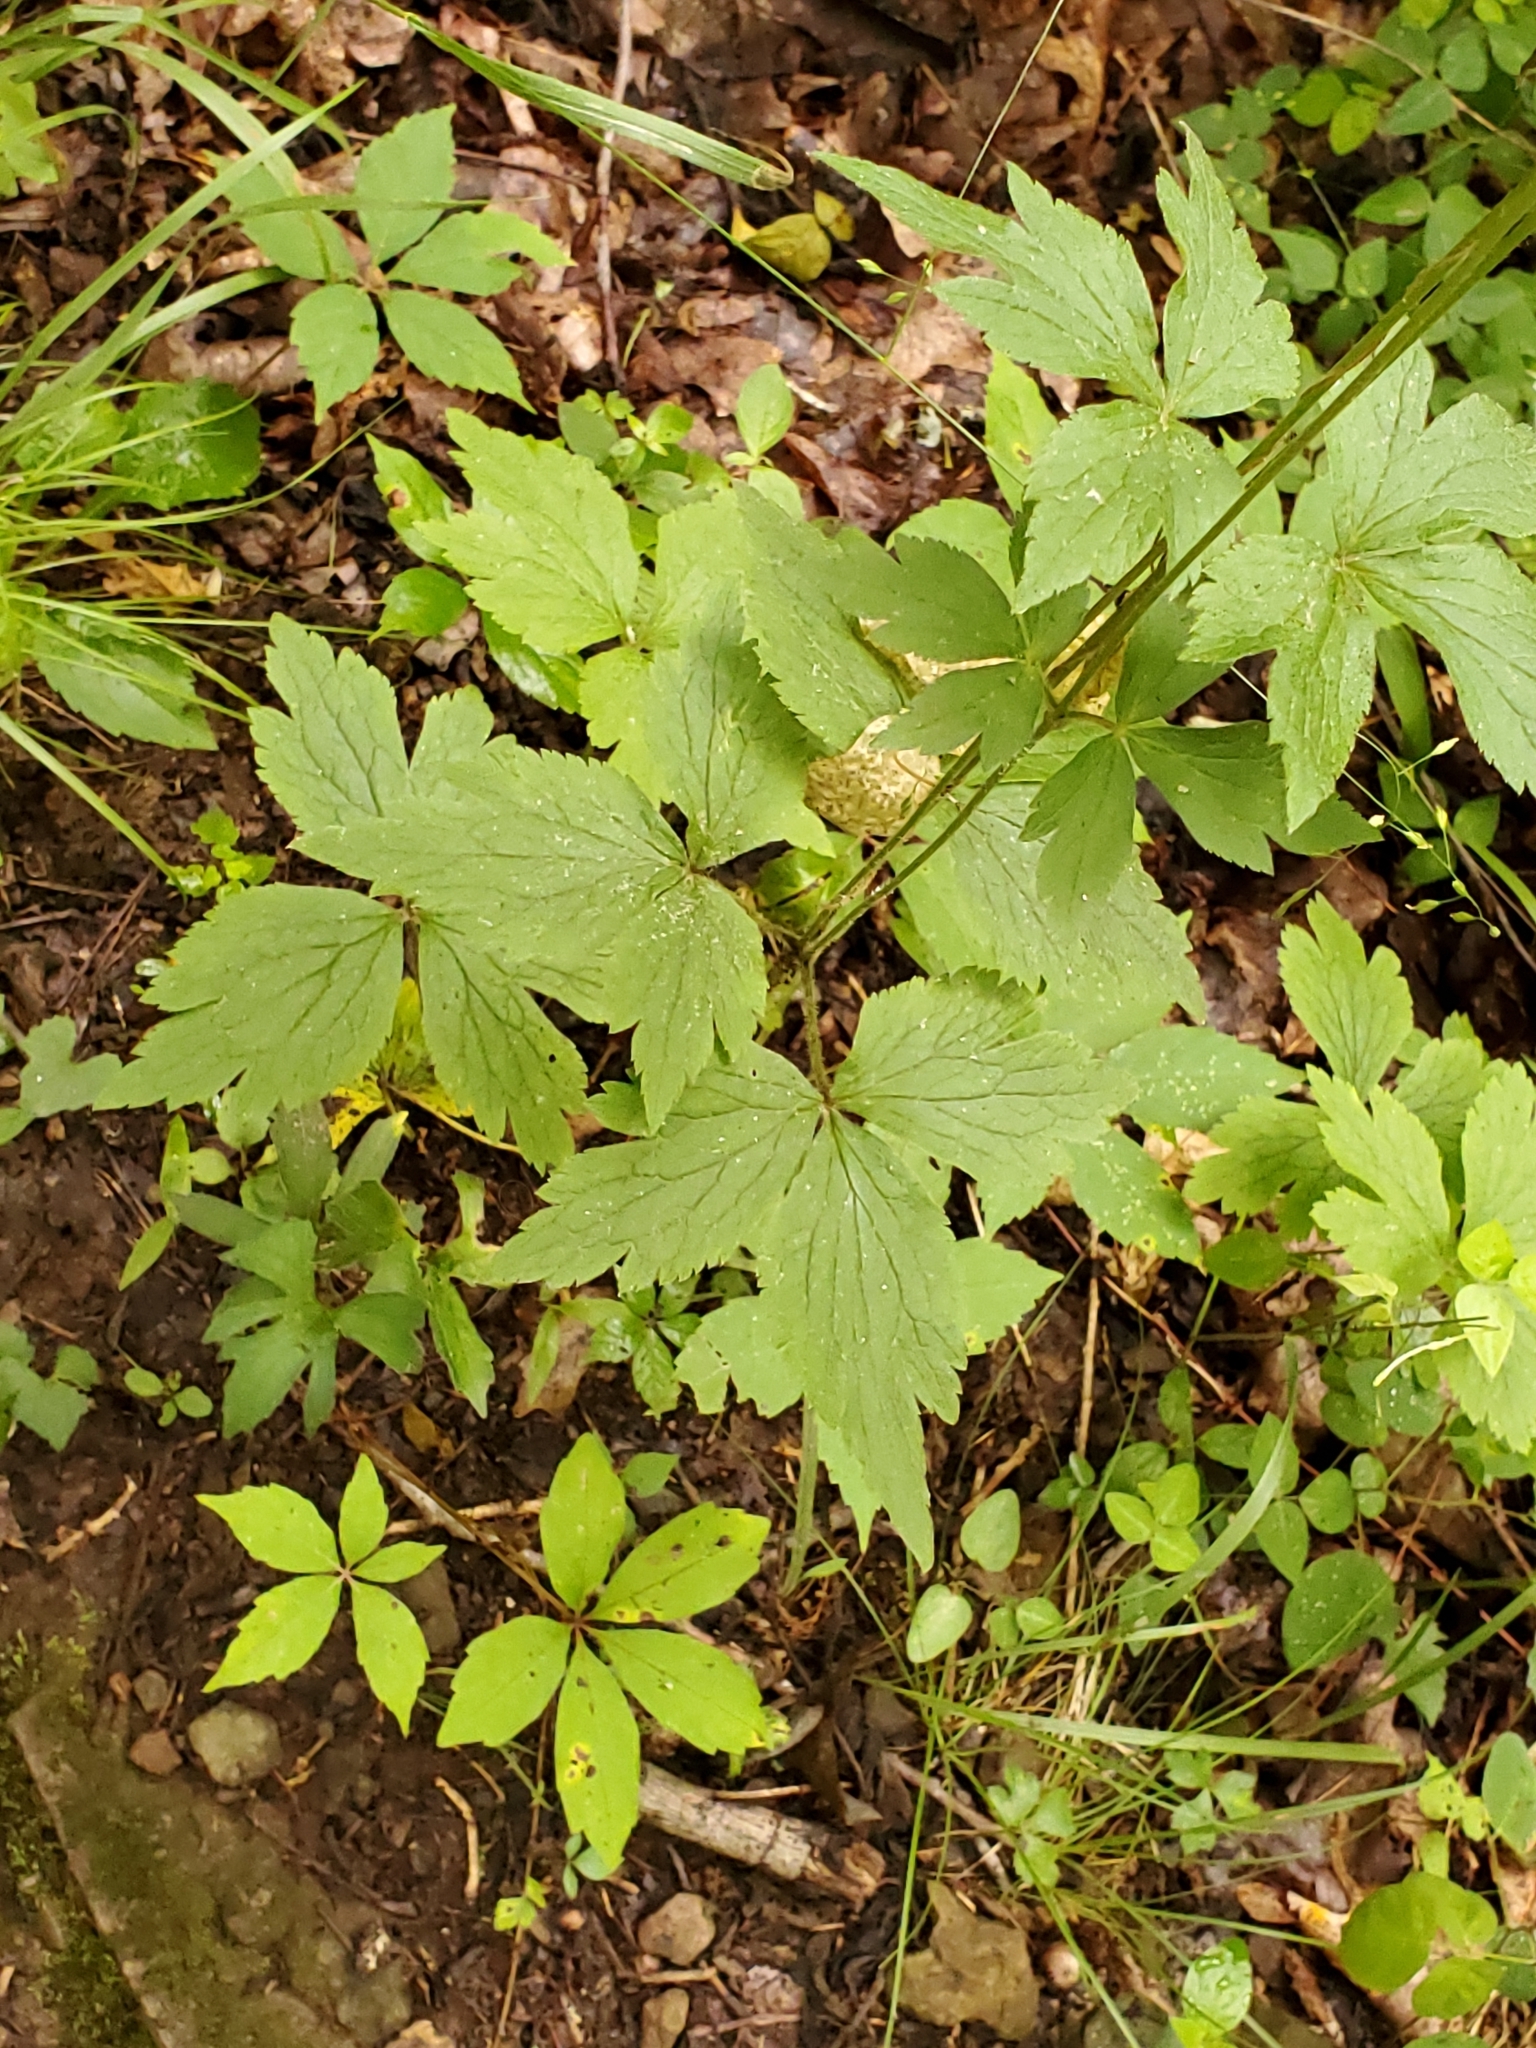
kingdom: Plantae
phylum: Tracheophyta
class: Magnoliopsida
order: Ranunculales
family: Ranunculaceae
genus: Anemone
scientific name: Anemone virginiana
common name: Tall anemone
